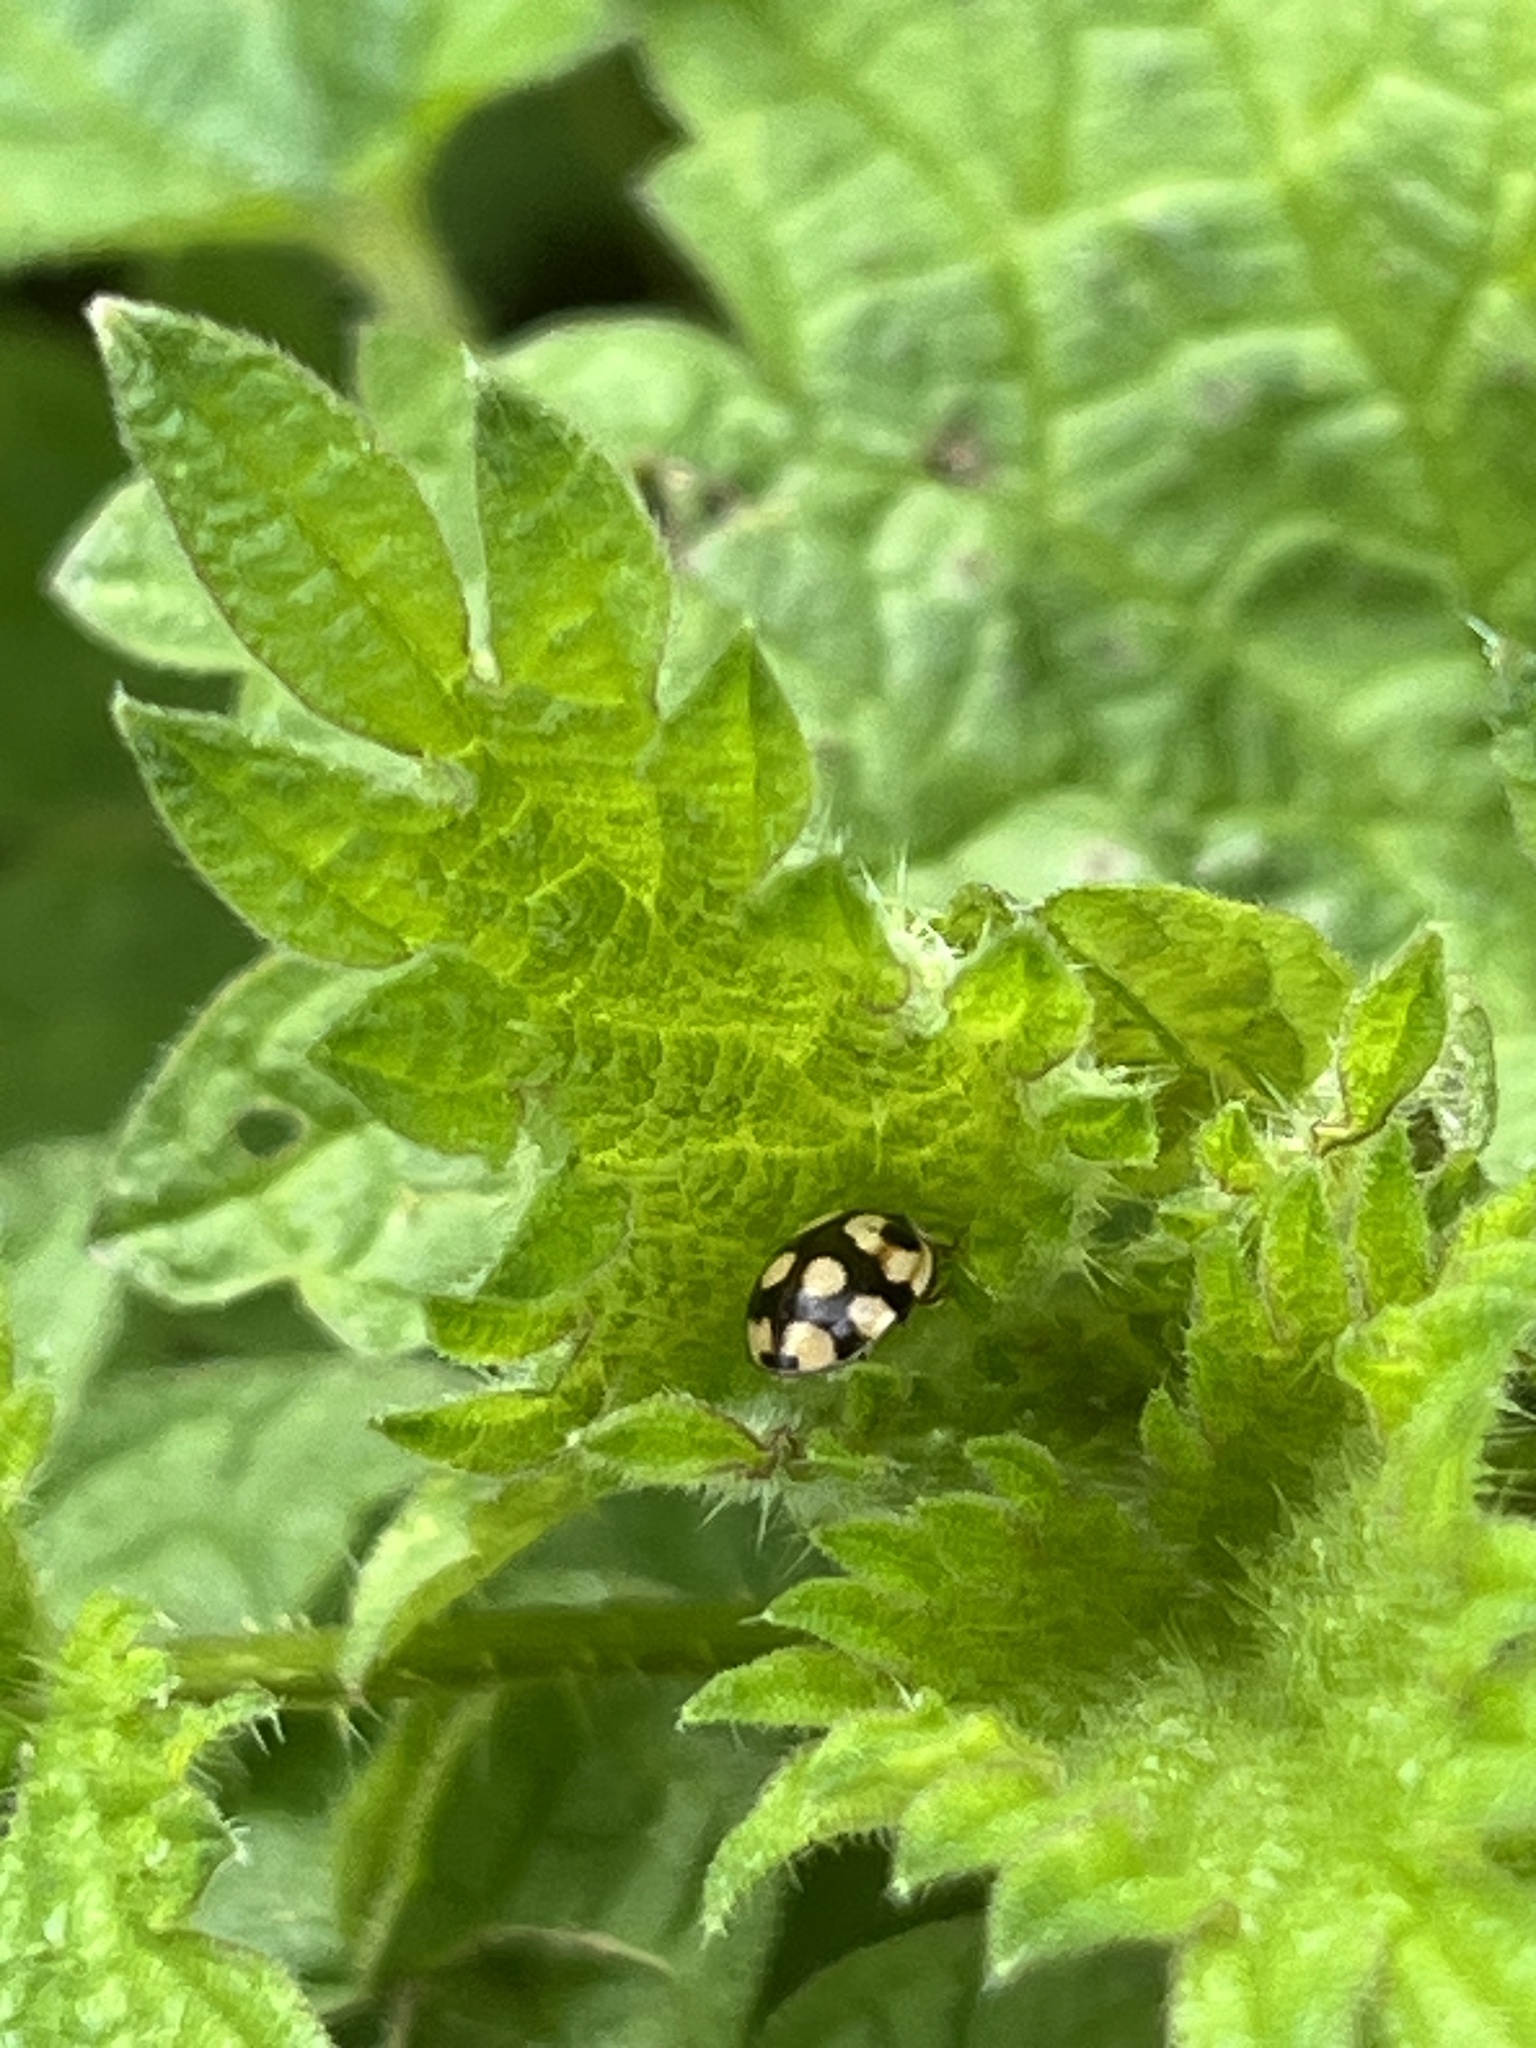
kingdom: Animalia
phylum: Arthropoda
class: Insecta
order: Coleoptera
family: Coccinellidae
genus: Adalia
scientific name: Adalia decempunctata
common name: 10-spot ladybird
